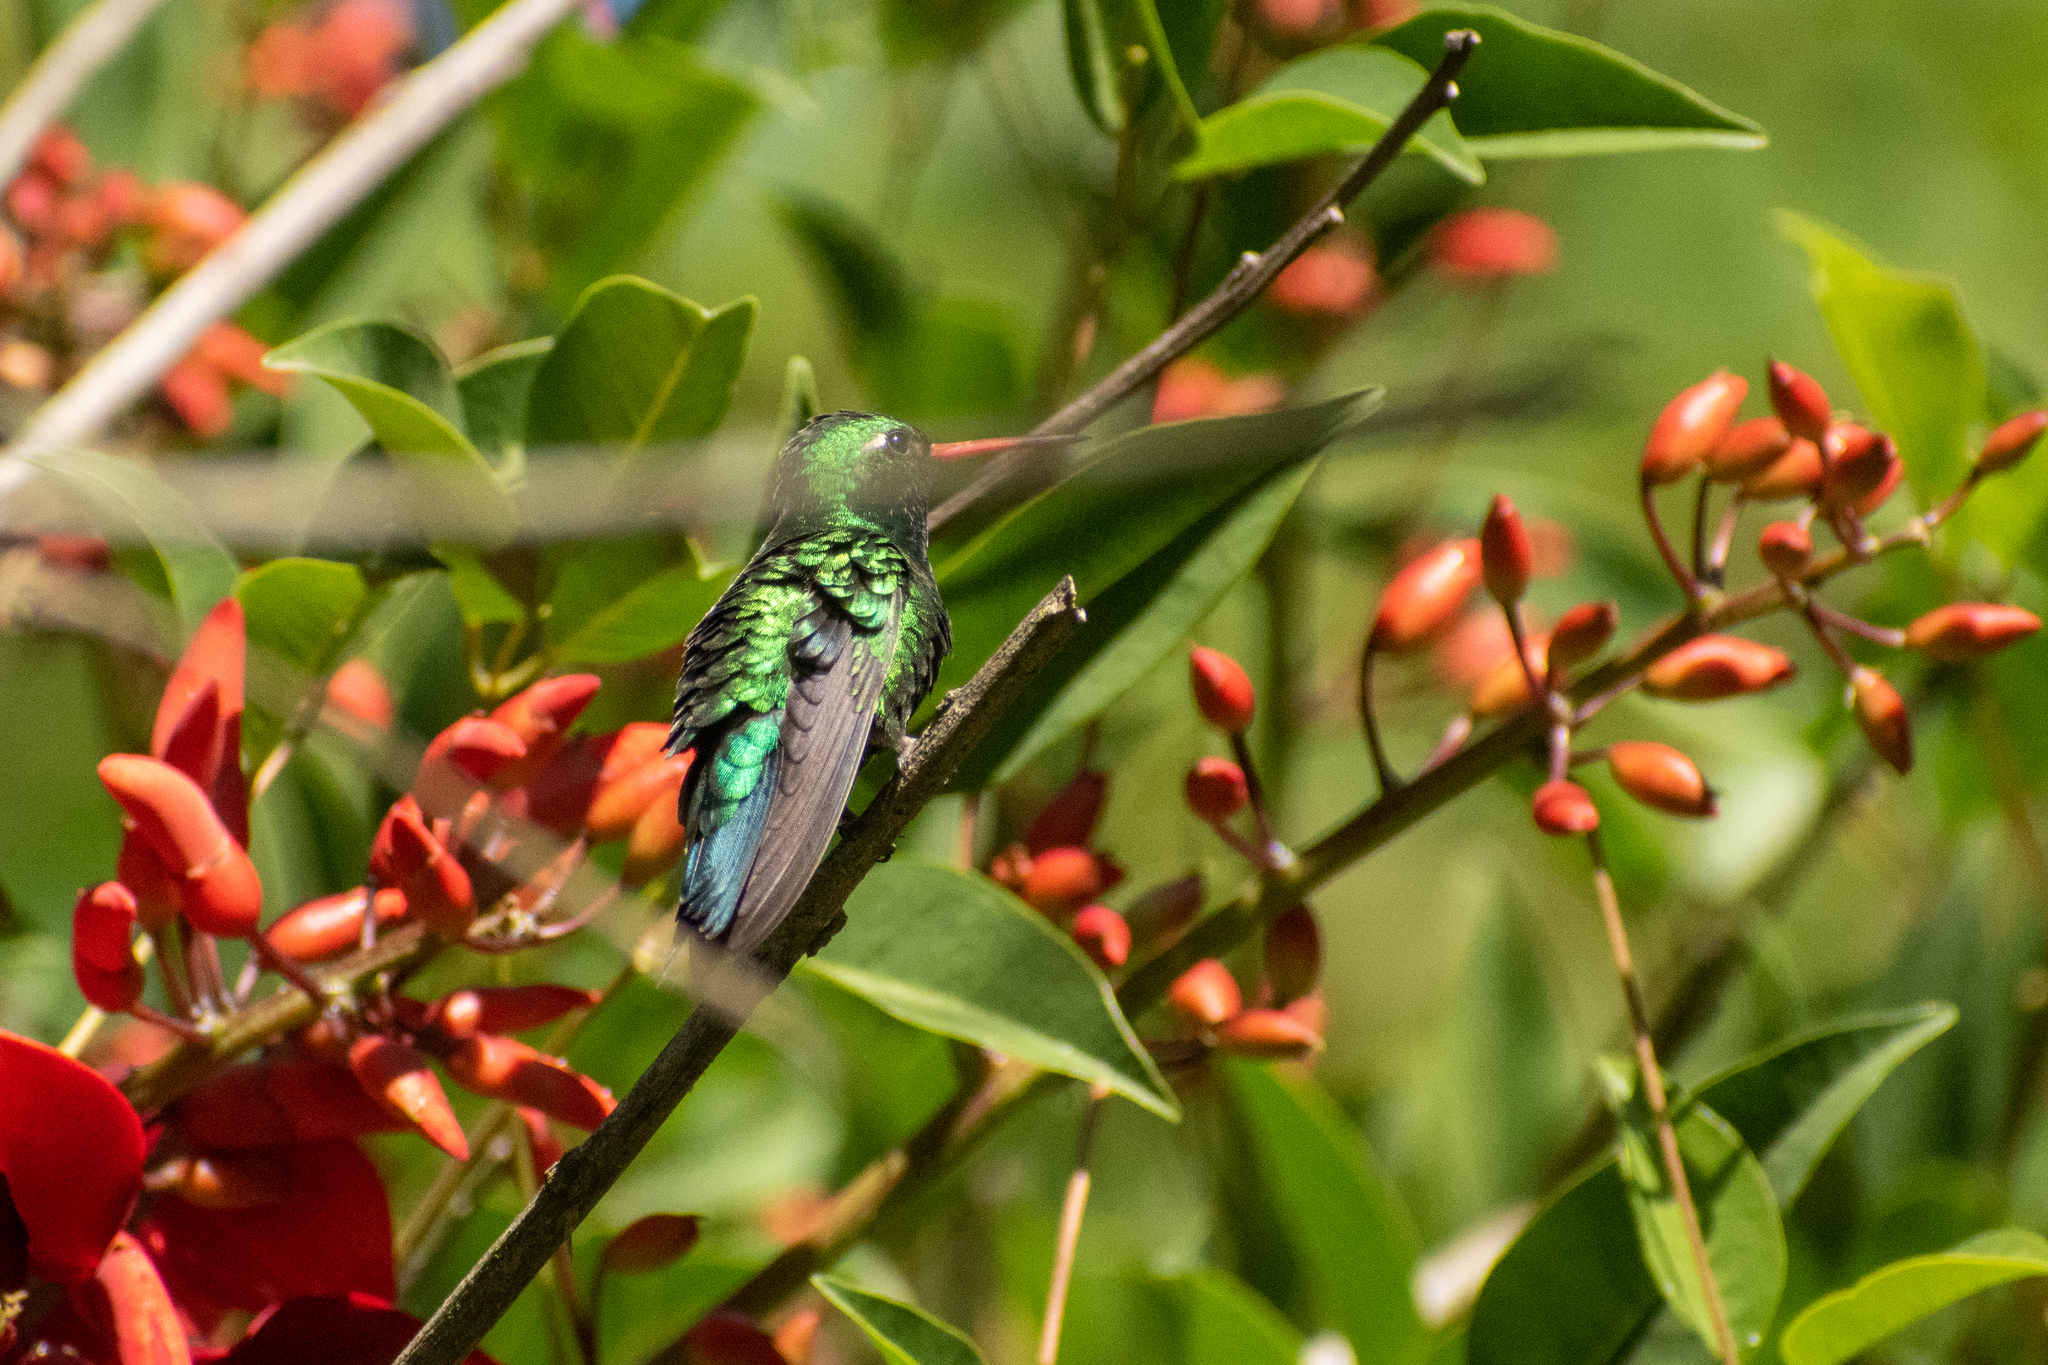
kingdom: Animalia
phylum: Chordata
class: Aves
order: Apodiformes
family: Trochilidae
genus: Chlorostilbon
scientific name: Chlorostilbon lucidus
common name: Glittering-bellied emerald
